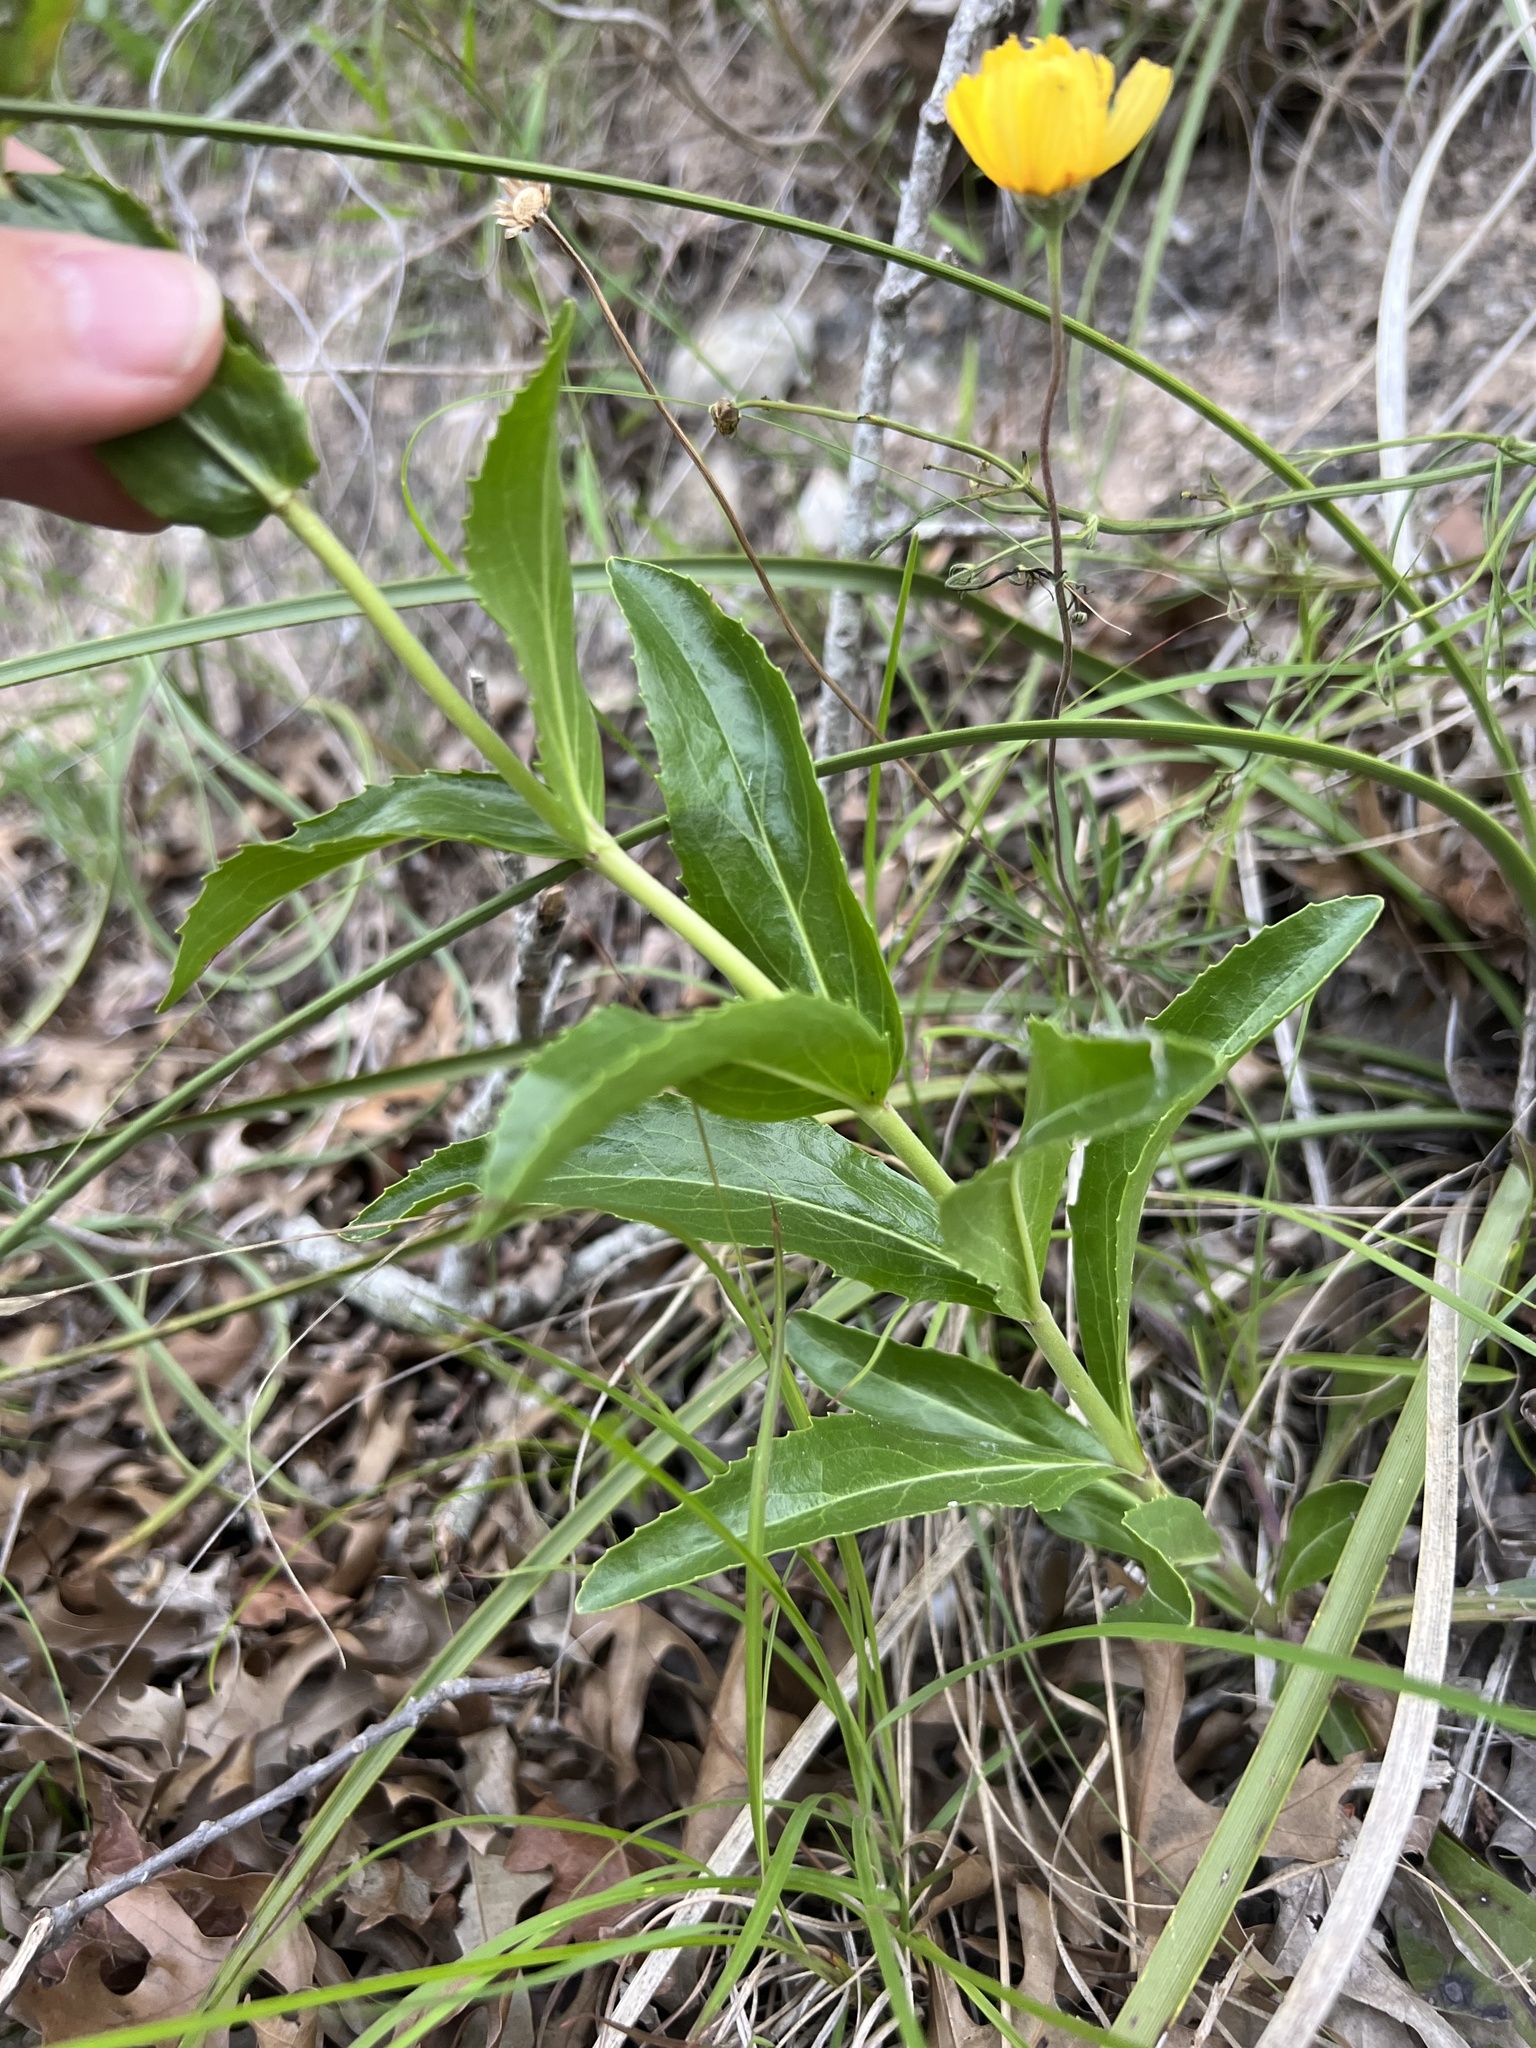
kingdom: Plantae
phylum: Tracheophyta
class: Magnoliopsida
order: Lamiales
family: Plantaginaceae
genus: Penstemon
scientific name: Penstemon cobaea
